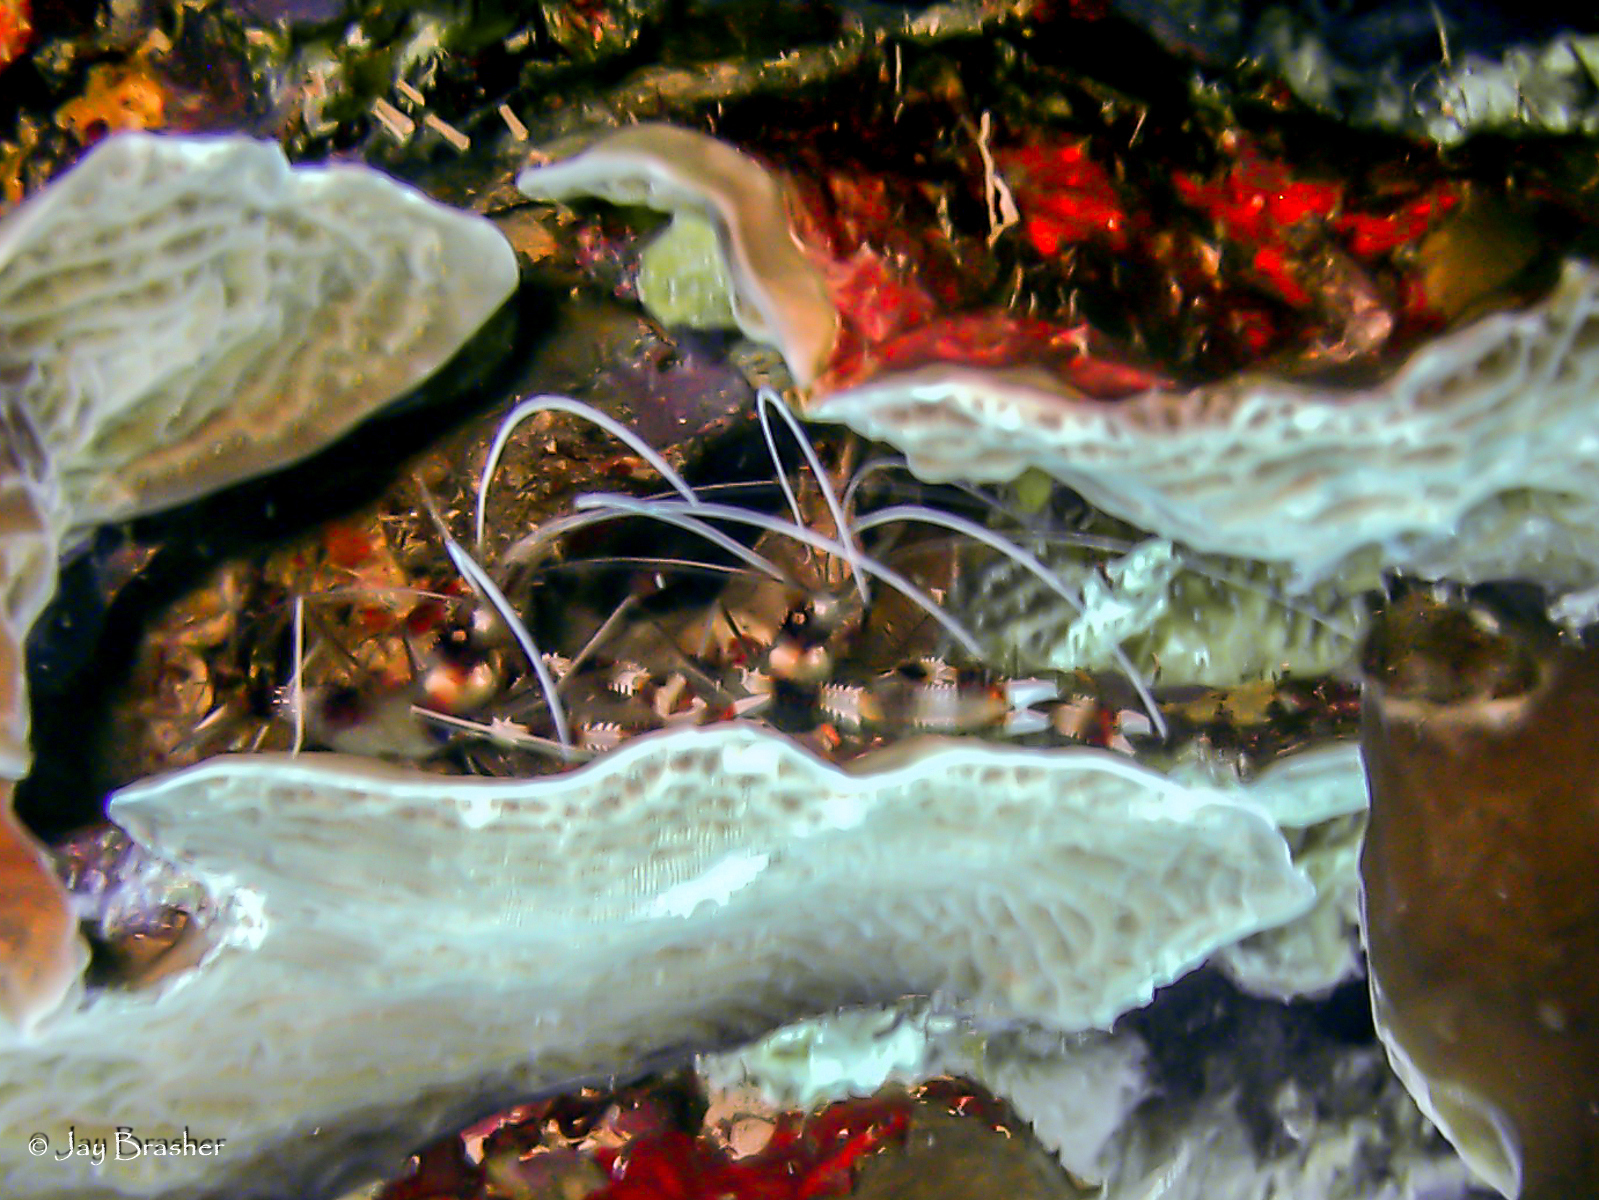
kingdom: Animalia
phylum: Arthropoda
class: Malacostraca
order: Decapoda
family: Stenopodidae
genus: Stenopus
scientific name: Stenopus hispidus
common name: Banded coral shrimp
